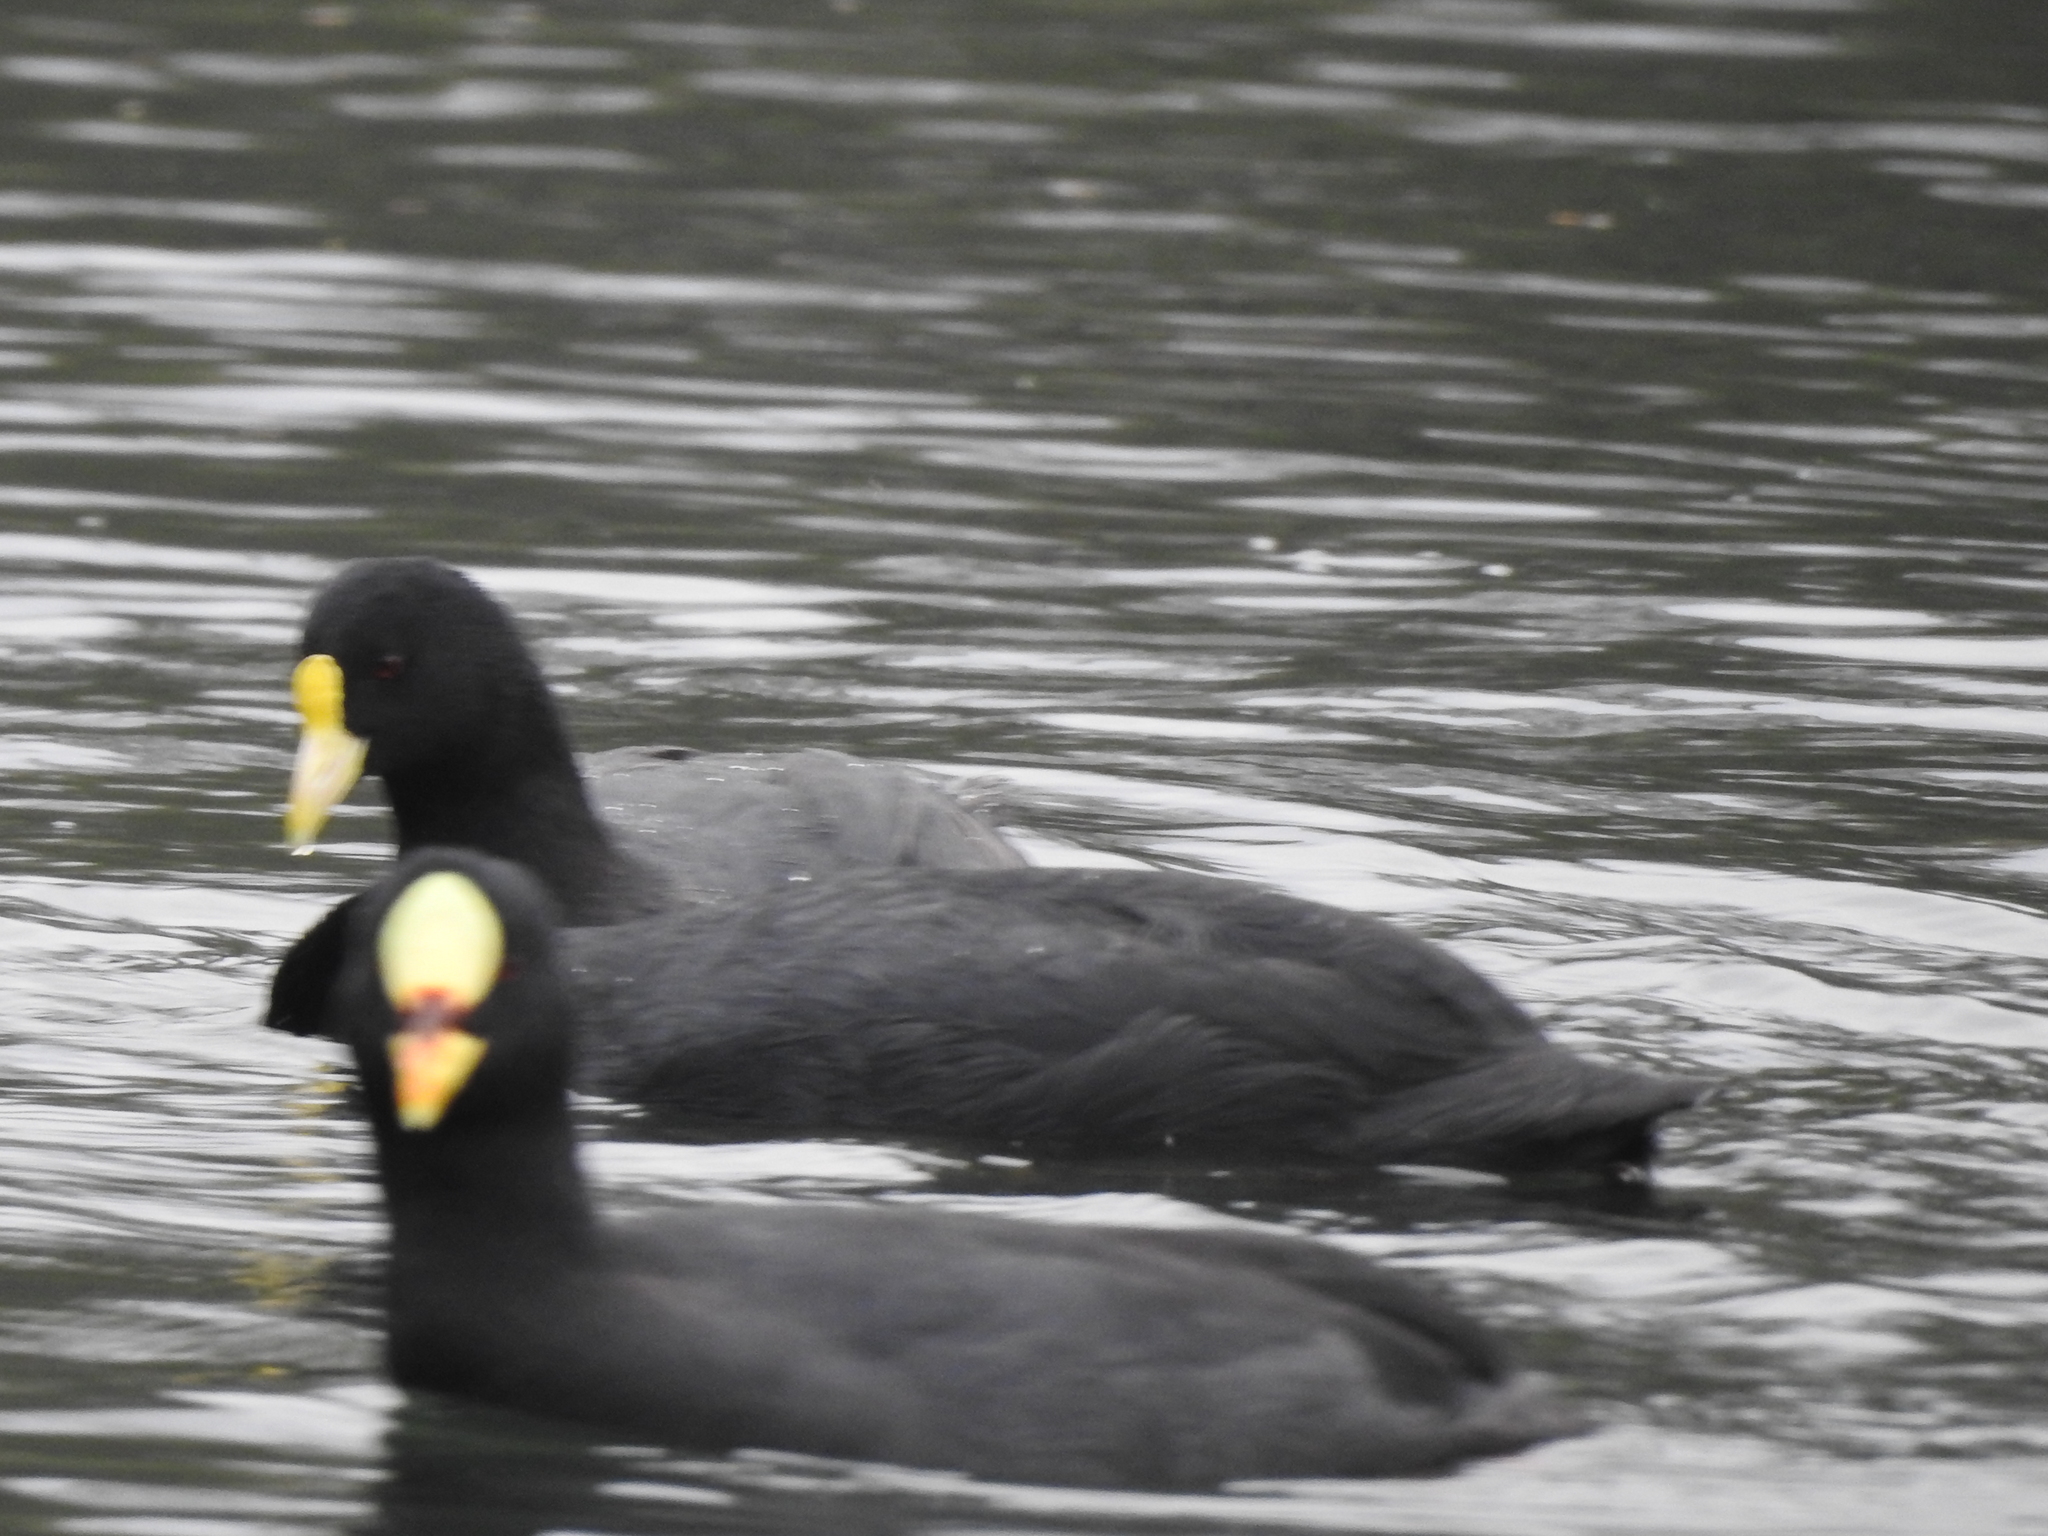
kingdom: Animalia
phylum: Chordata
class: Aves
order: Gruiformes
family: Rallidae
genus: Fulica
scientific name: Fulica armillata
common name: Red-gartered coot
